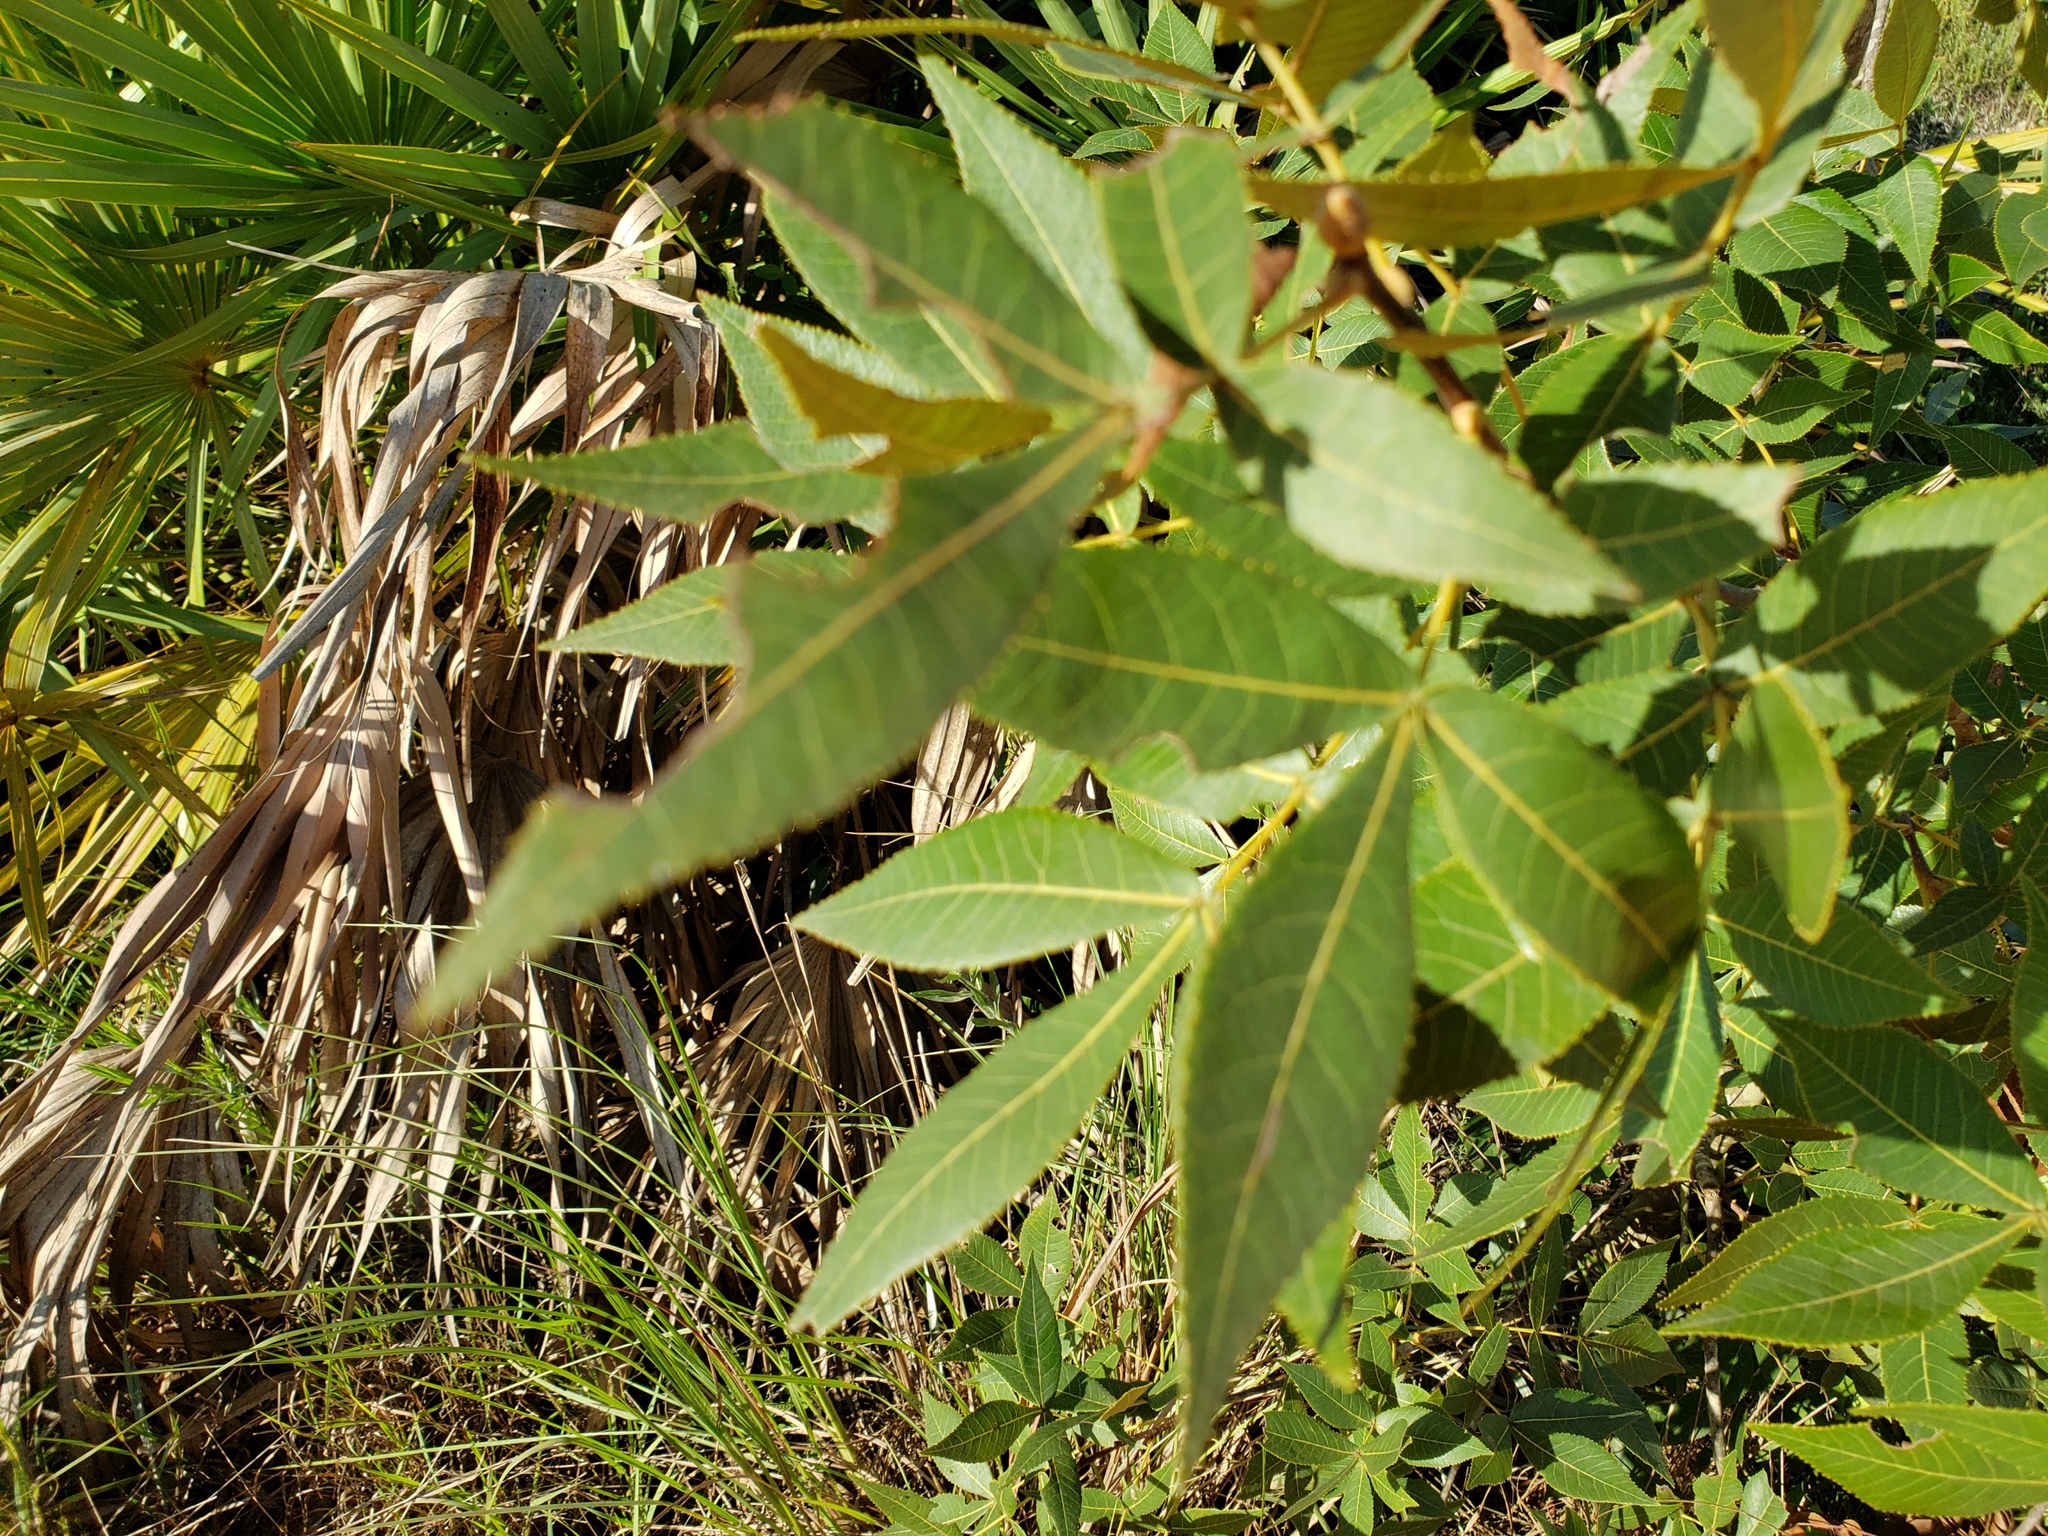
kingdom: Plantae
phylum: Tracheophyta
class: Magnoliopsida
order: Fagales
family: Juglandaceae
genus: Carya
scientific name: Carya floridana
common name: Scrub hickory
